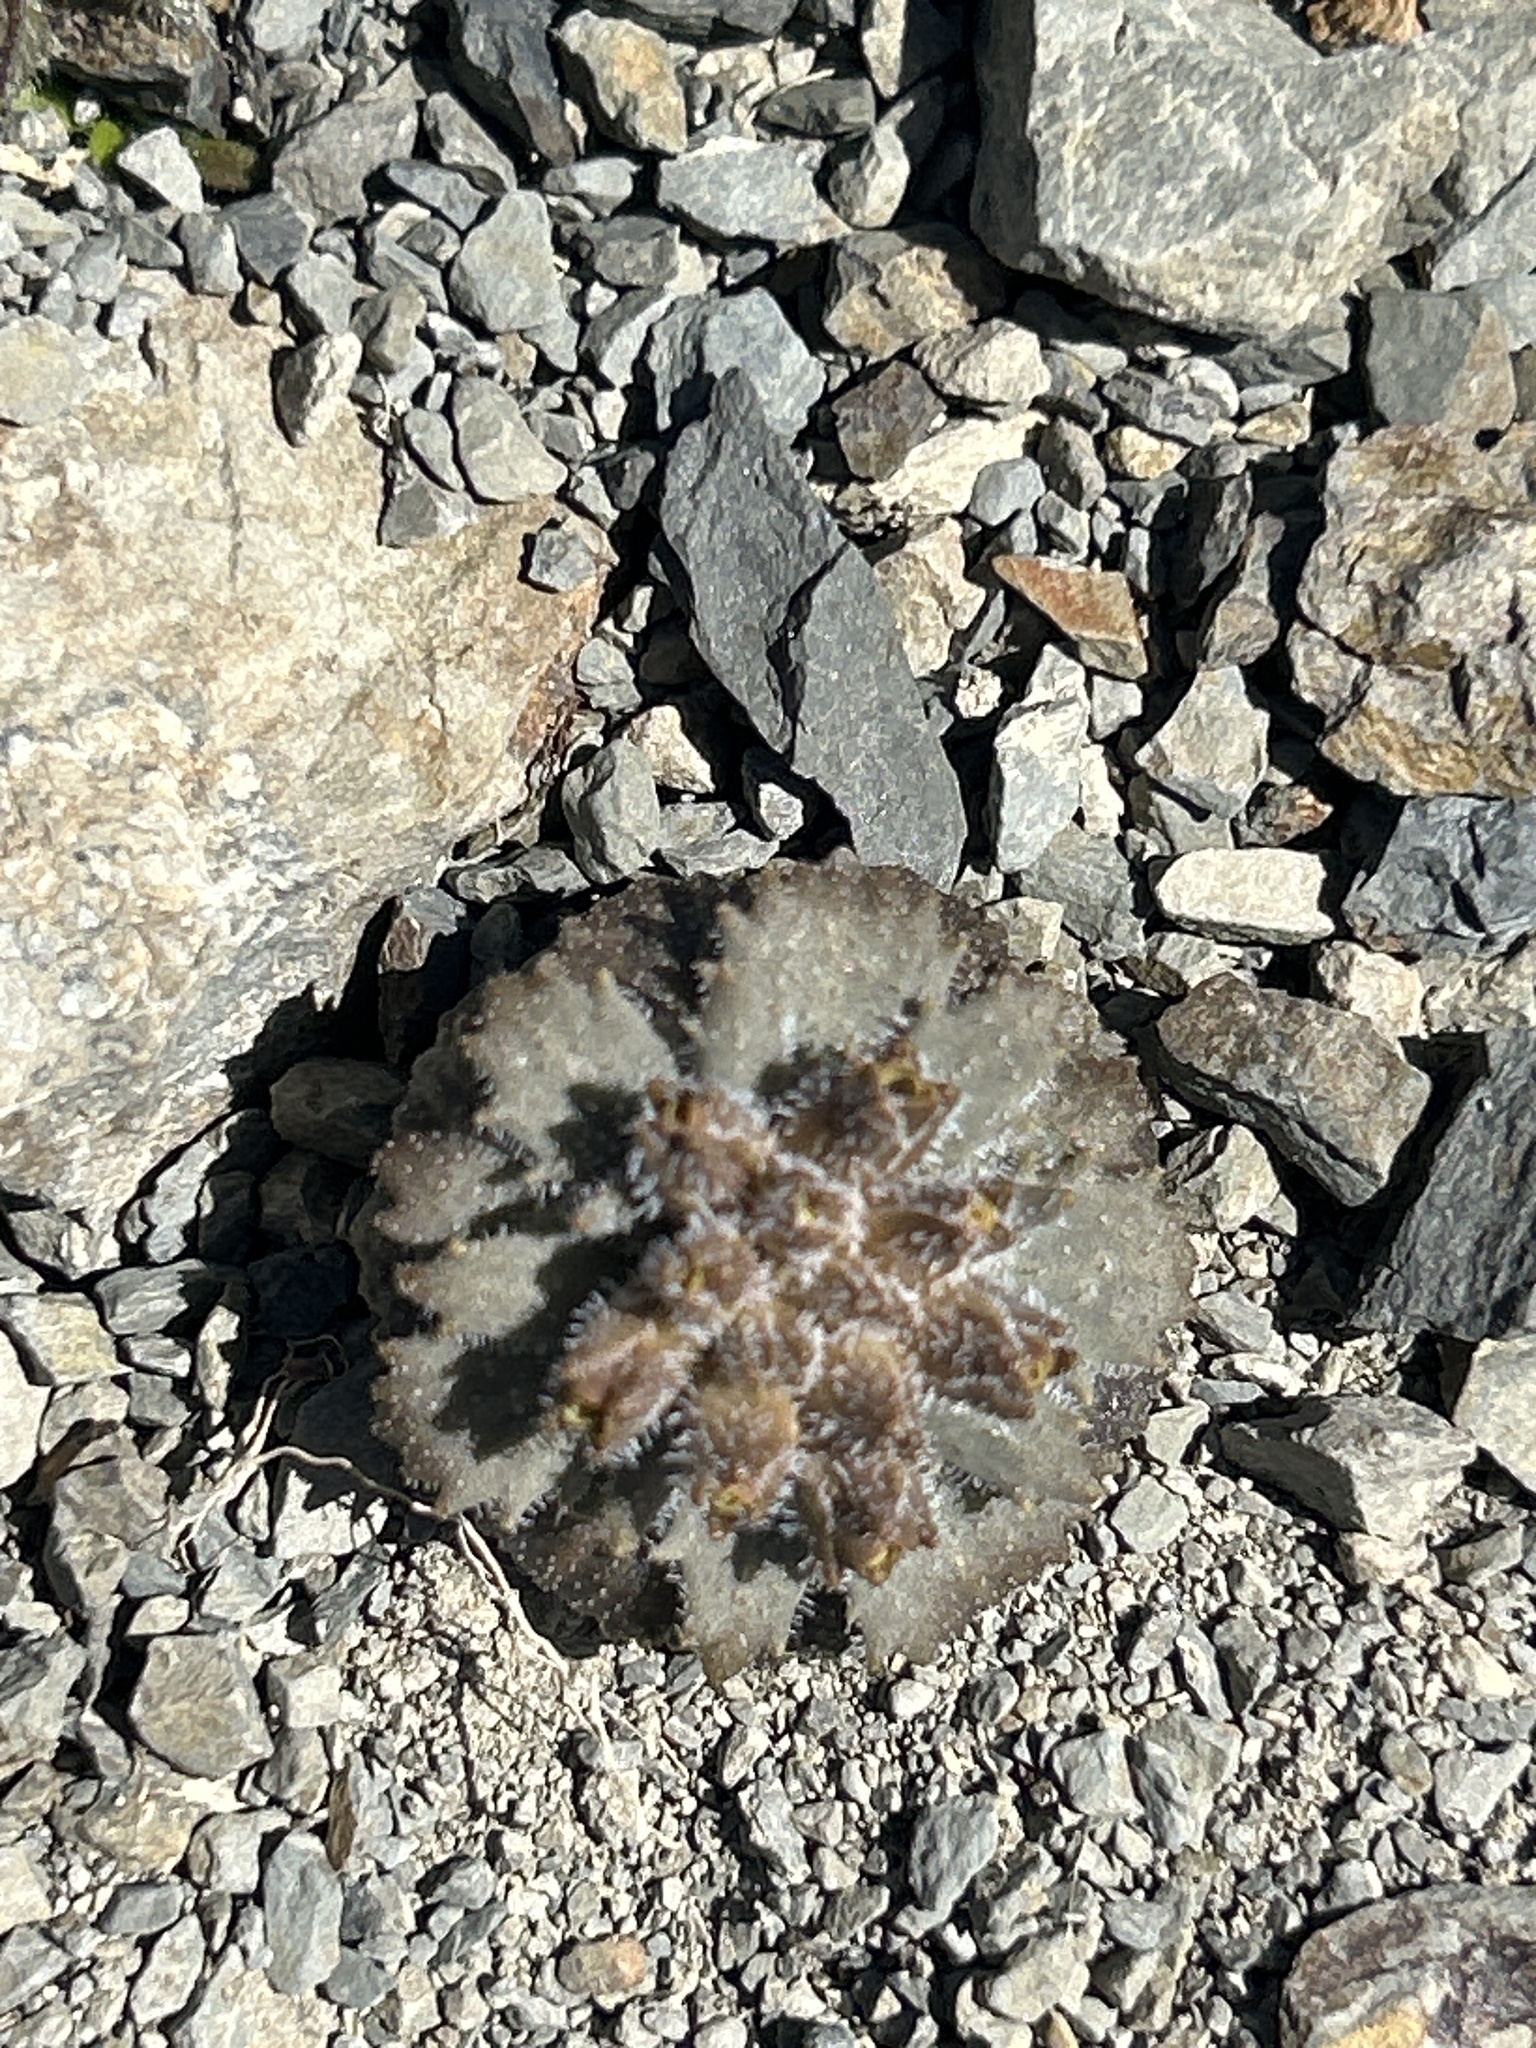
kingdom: Plantae
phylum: Tracheophyta
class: Magnoliopsida
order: Brassicales
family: Brassicaceae
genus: Notothlaspi
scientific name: Notothlaspi rosulatum
